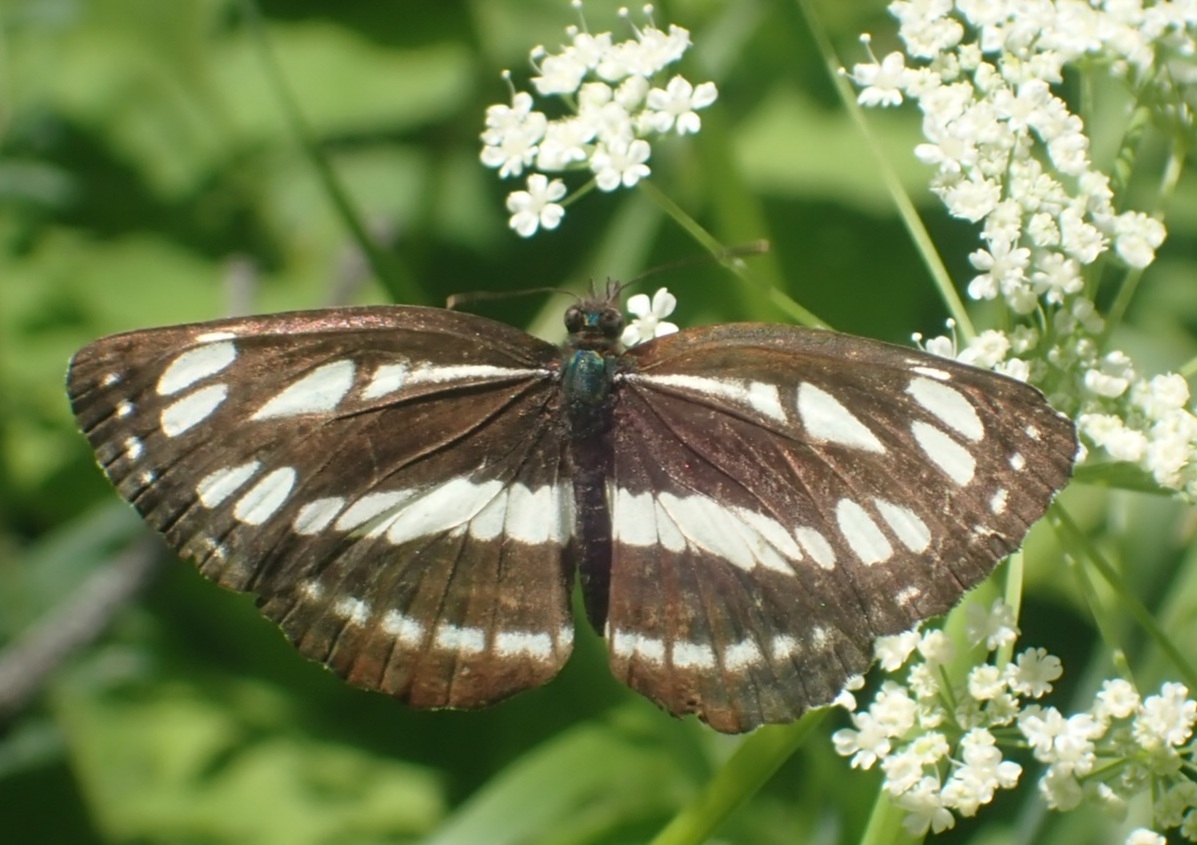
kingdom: Animalia
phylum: Arthropoda
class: Insecta
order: Lepidoptera
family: Nymphalidae
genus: Neptis
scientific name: Neptis sappho
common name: Common glider
